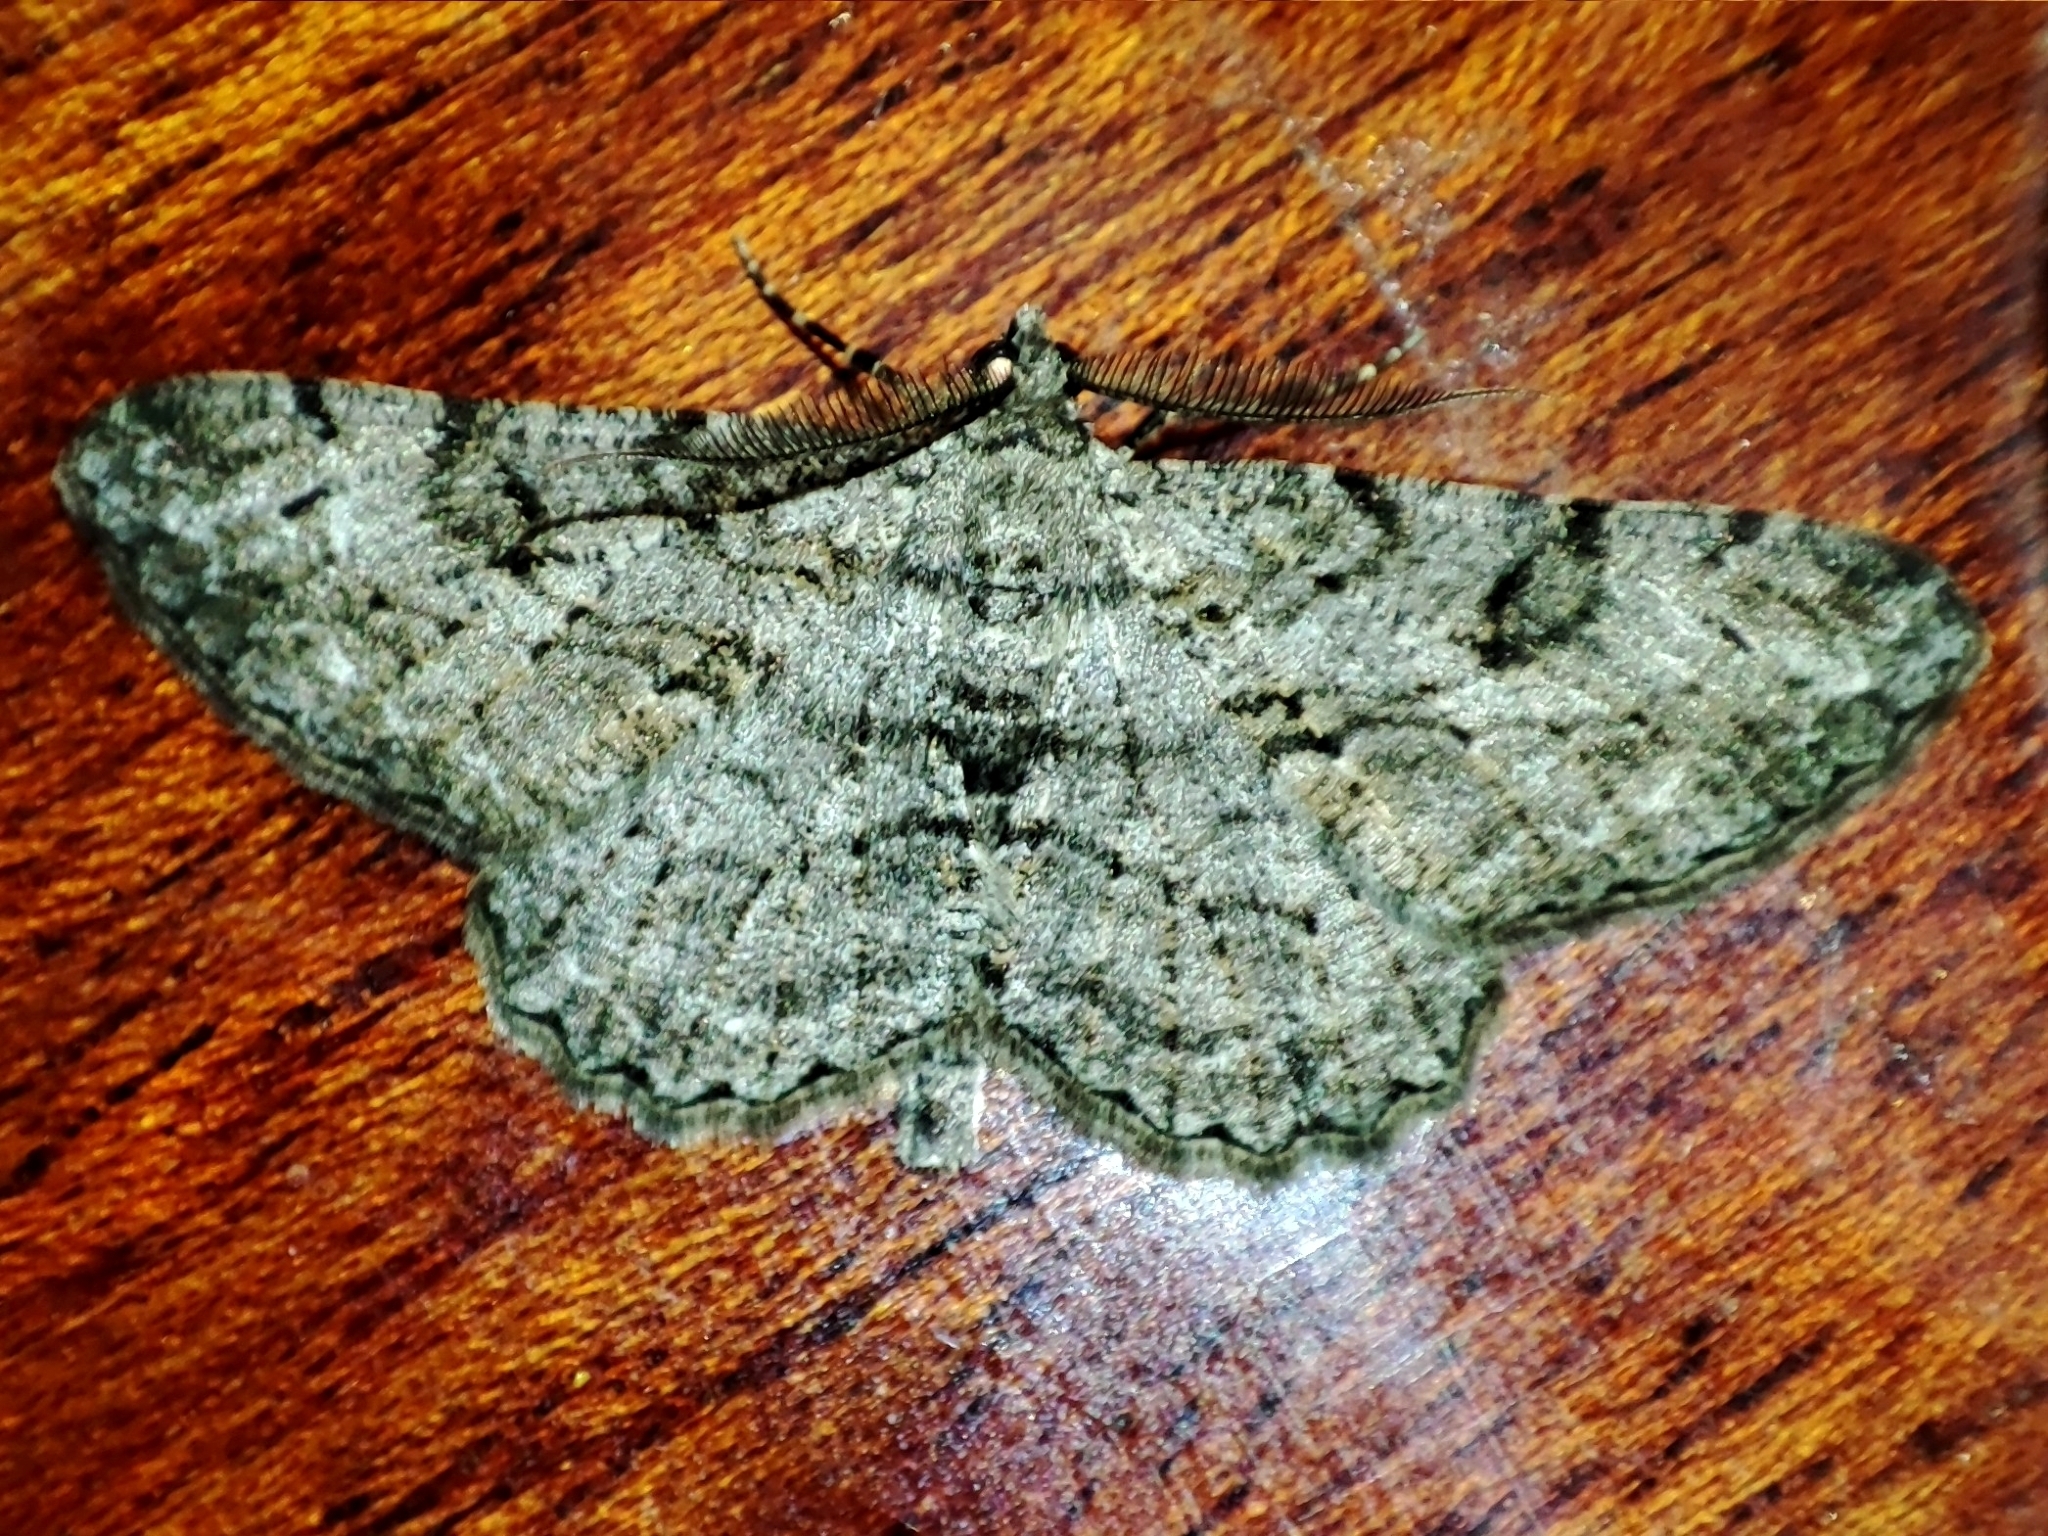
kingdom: Animalia
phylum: Arthropoda
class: Insecta
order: Lepidoptera
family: Geometridae
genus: Peribatodes
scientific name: Peribatodes rhomboidaria
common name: Willow beauty
